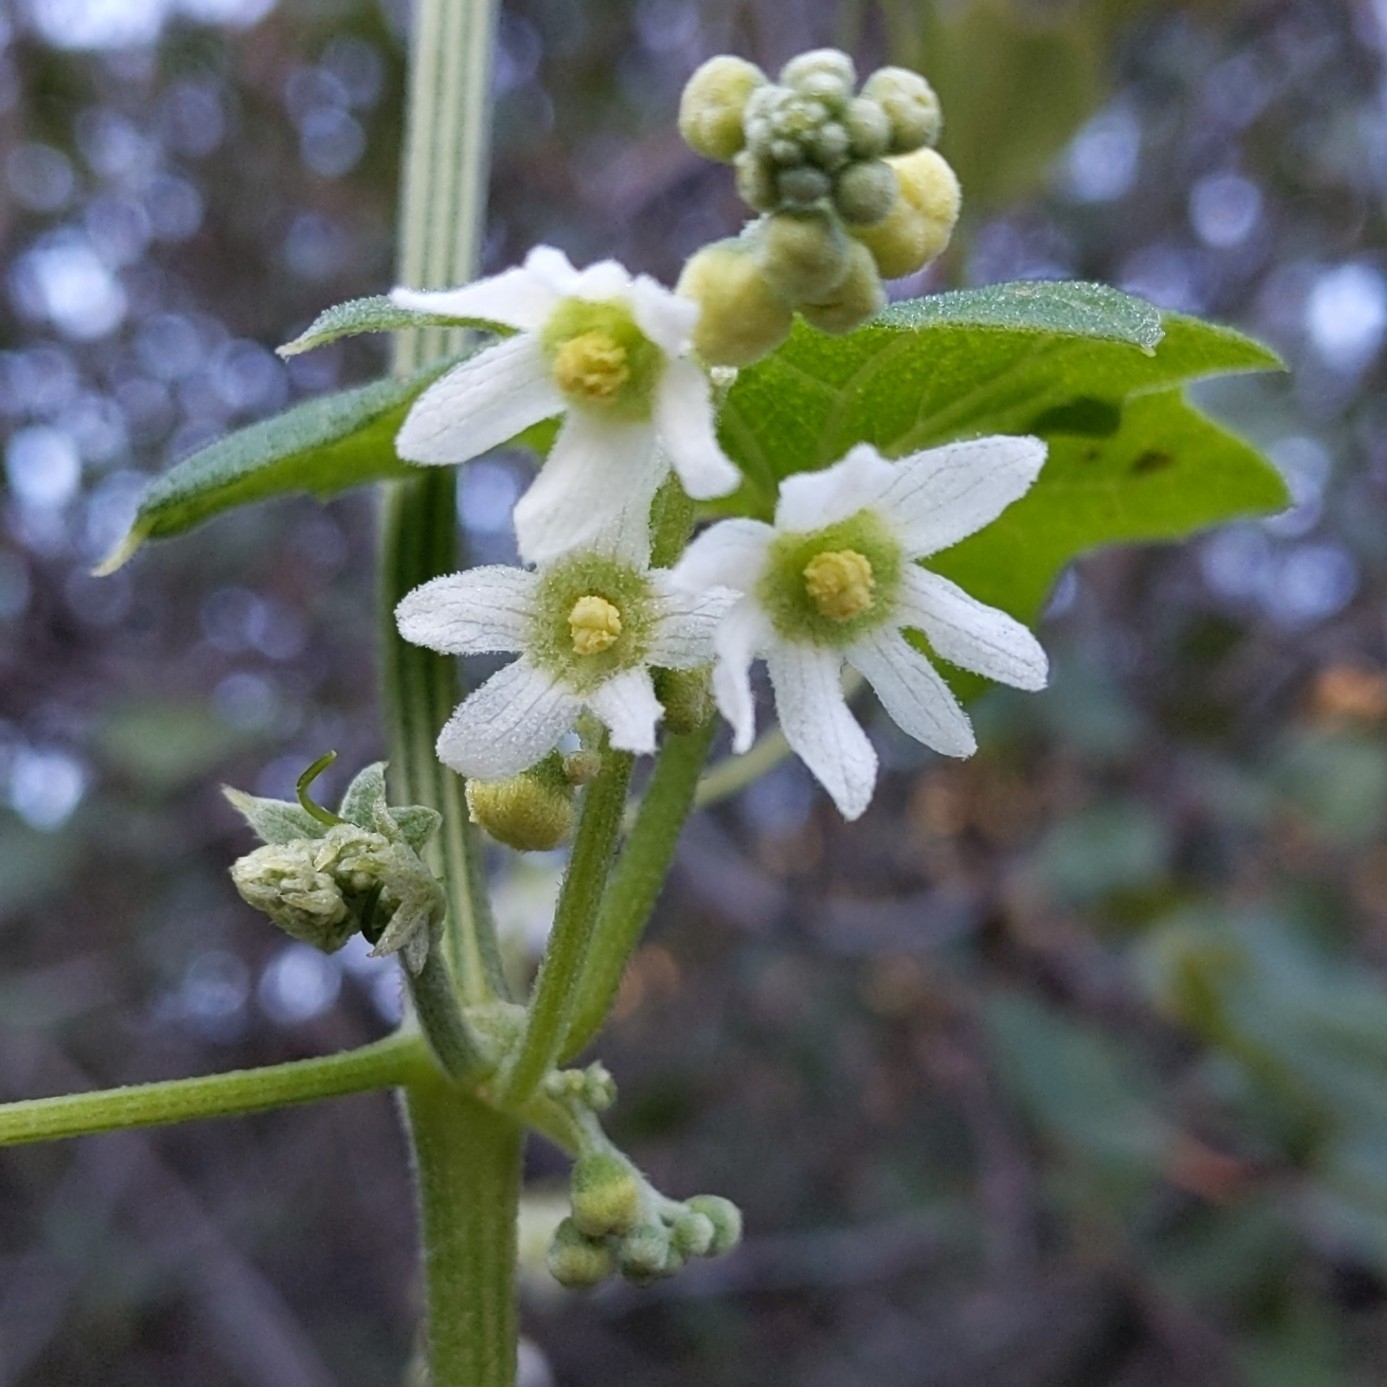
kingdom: Plantae
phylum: Tracheophyta
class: Magnoliopsida
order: Cucurbitales
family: Cucurbitaceae
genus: Marah
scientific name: Marah macrocarpa
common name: Cucamonga manroot
